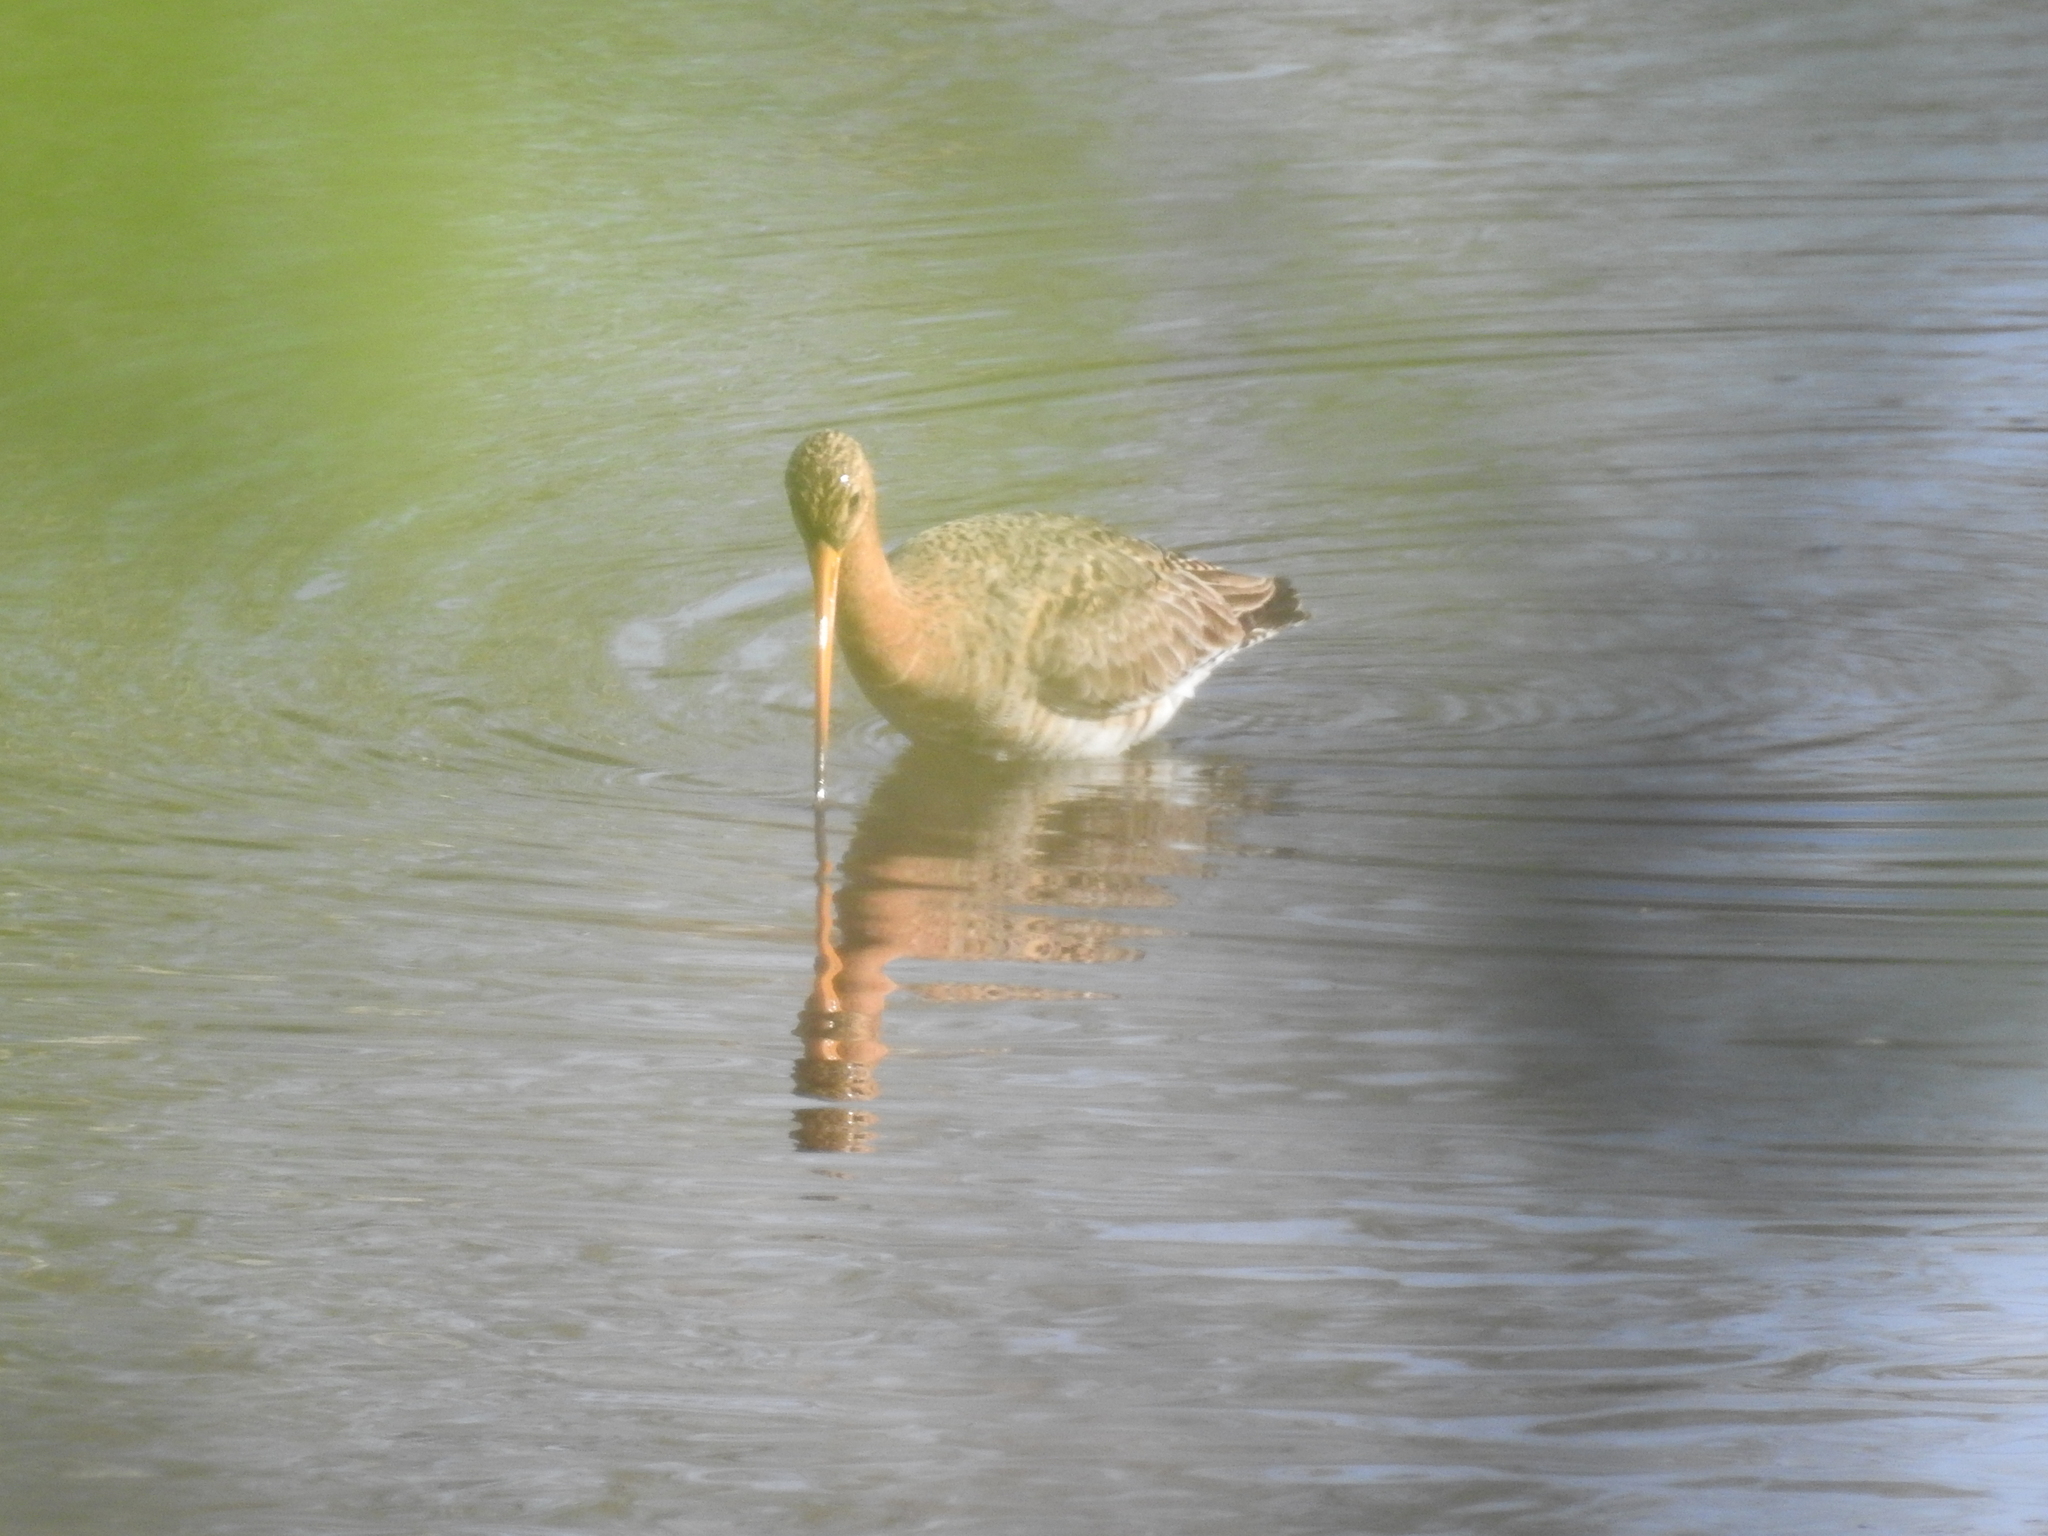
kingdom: Animalia
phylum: Chordata
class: Aves
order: Charadriiformes
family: Scolopacidae
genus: Limosa
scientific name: Limosa limosa
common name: Black-tailed godwit
